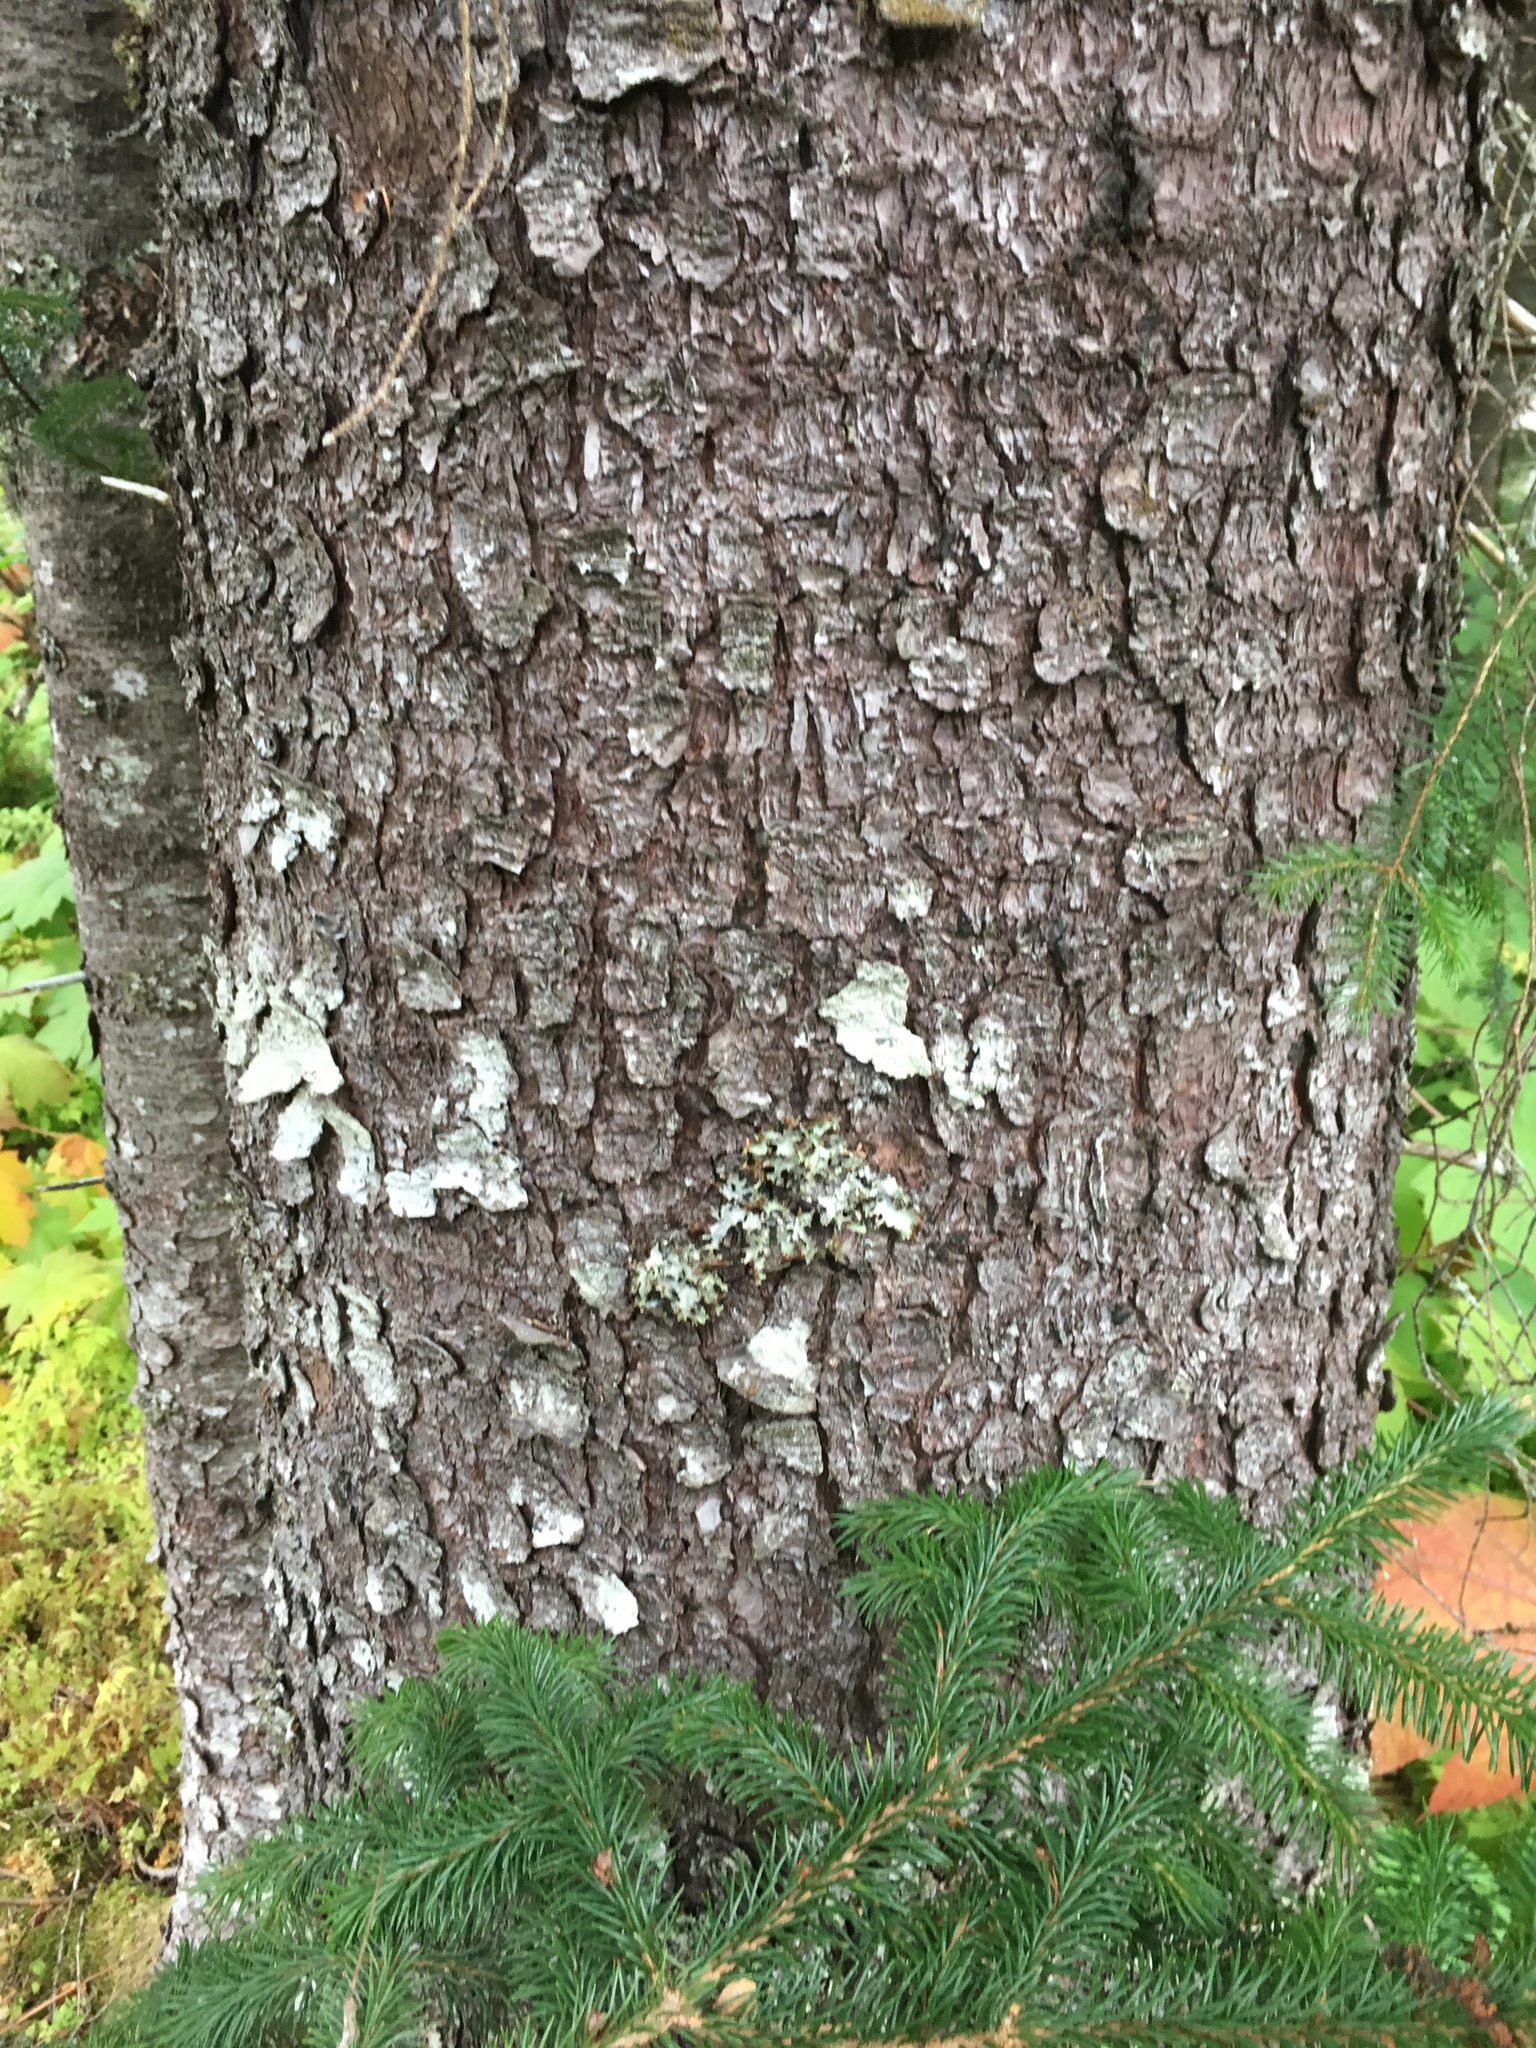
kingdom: Plantae
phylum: Tracheophyta
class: Pinopsida
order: Pinales
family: Pinaceae
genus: Picea
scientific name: Picea sitchensis
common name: Sitka spruce
